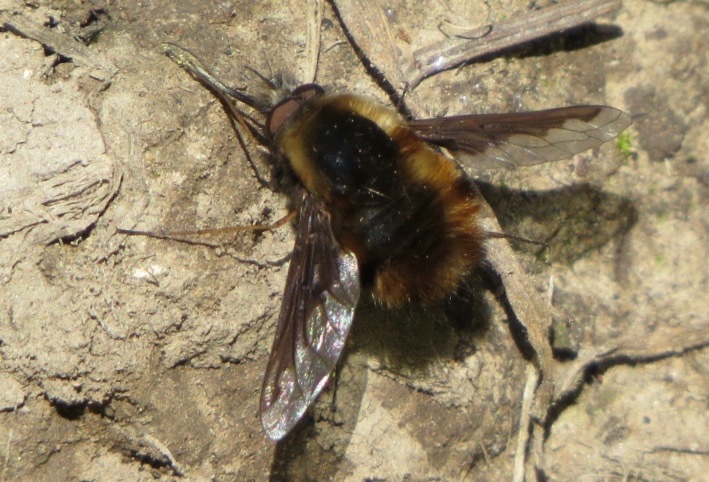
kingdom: Animalia
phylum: Arthropoda
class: Insecta
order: Diptera
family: Bombyliidae
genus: Bombylius
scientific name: Bombylius major
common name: Bee fly
